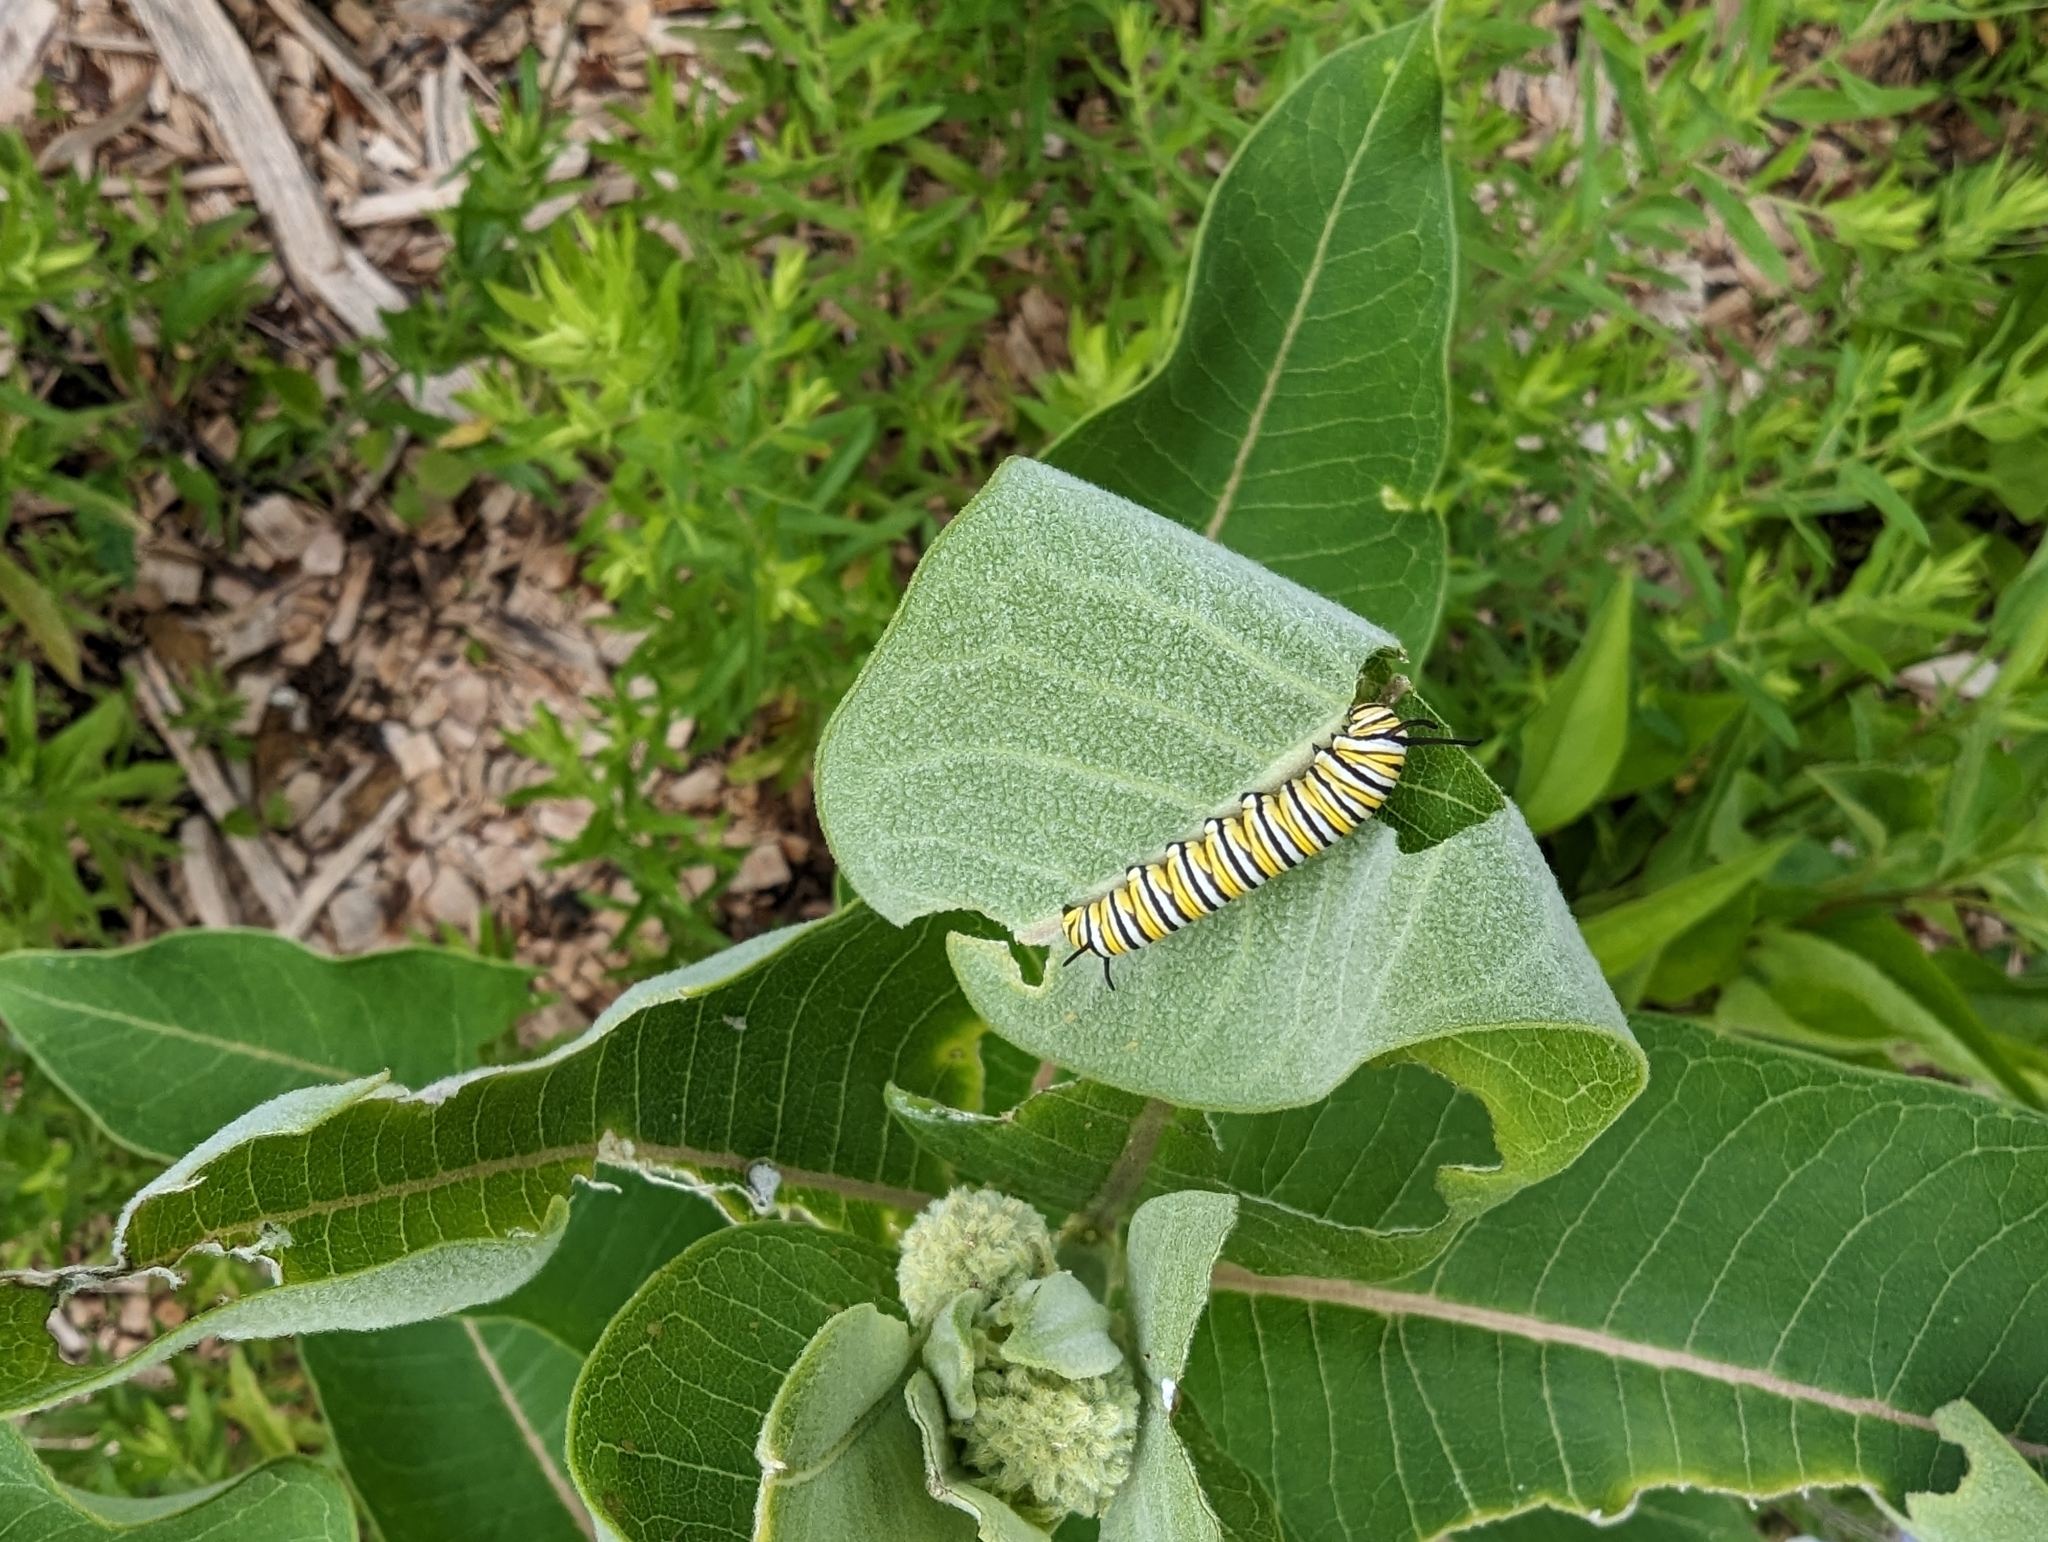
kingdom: Animalia
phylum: Arthropoda
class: Insecta
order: Lepidoptera
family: Nymphalidae
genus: Danaus
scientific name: Danaus plexippus
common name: Monarch
